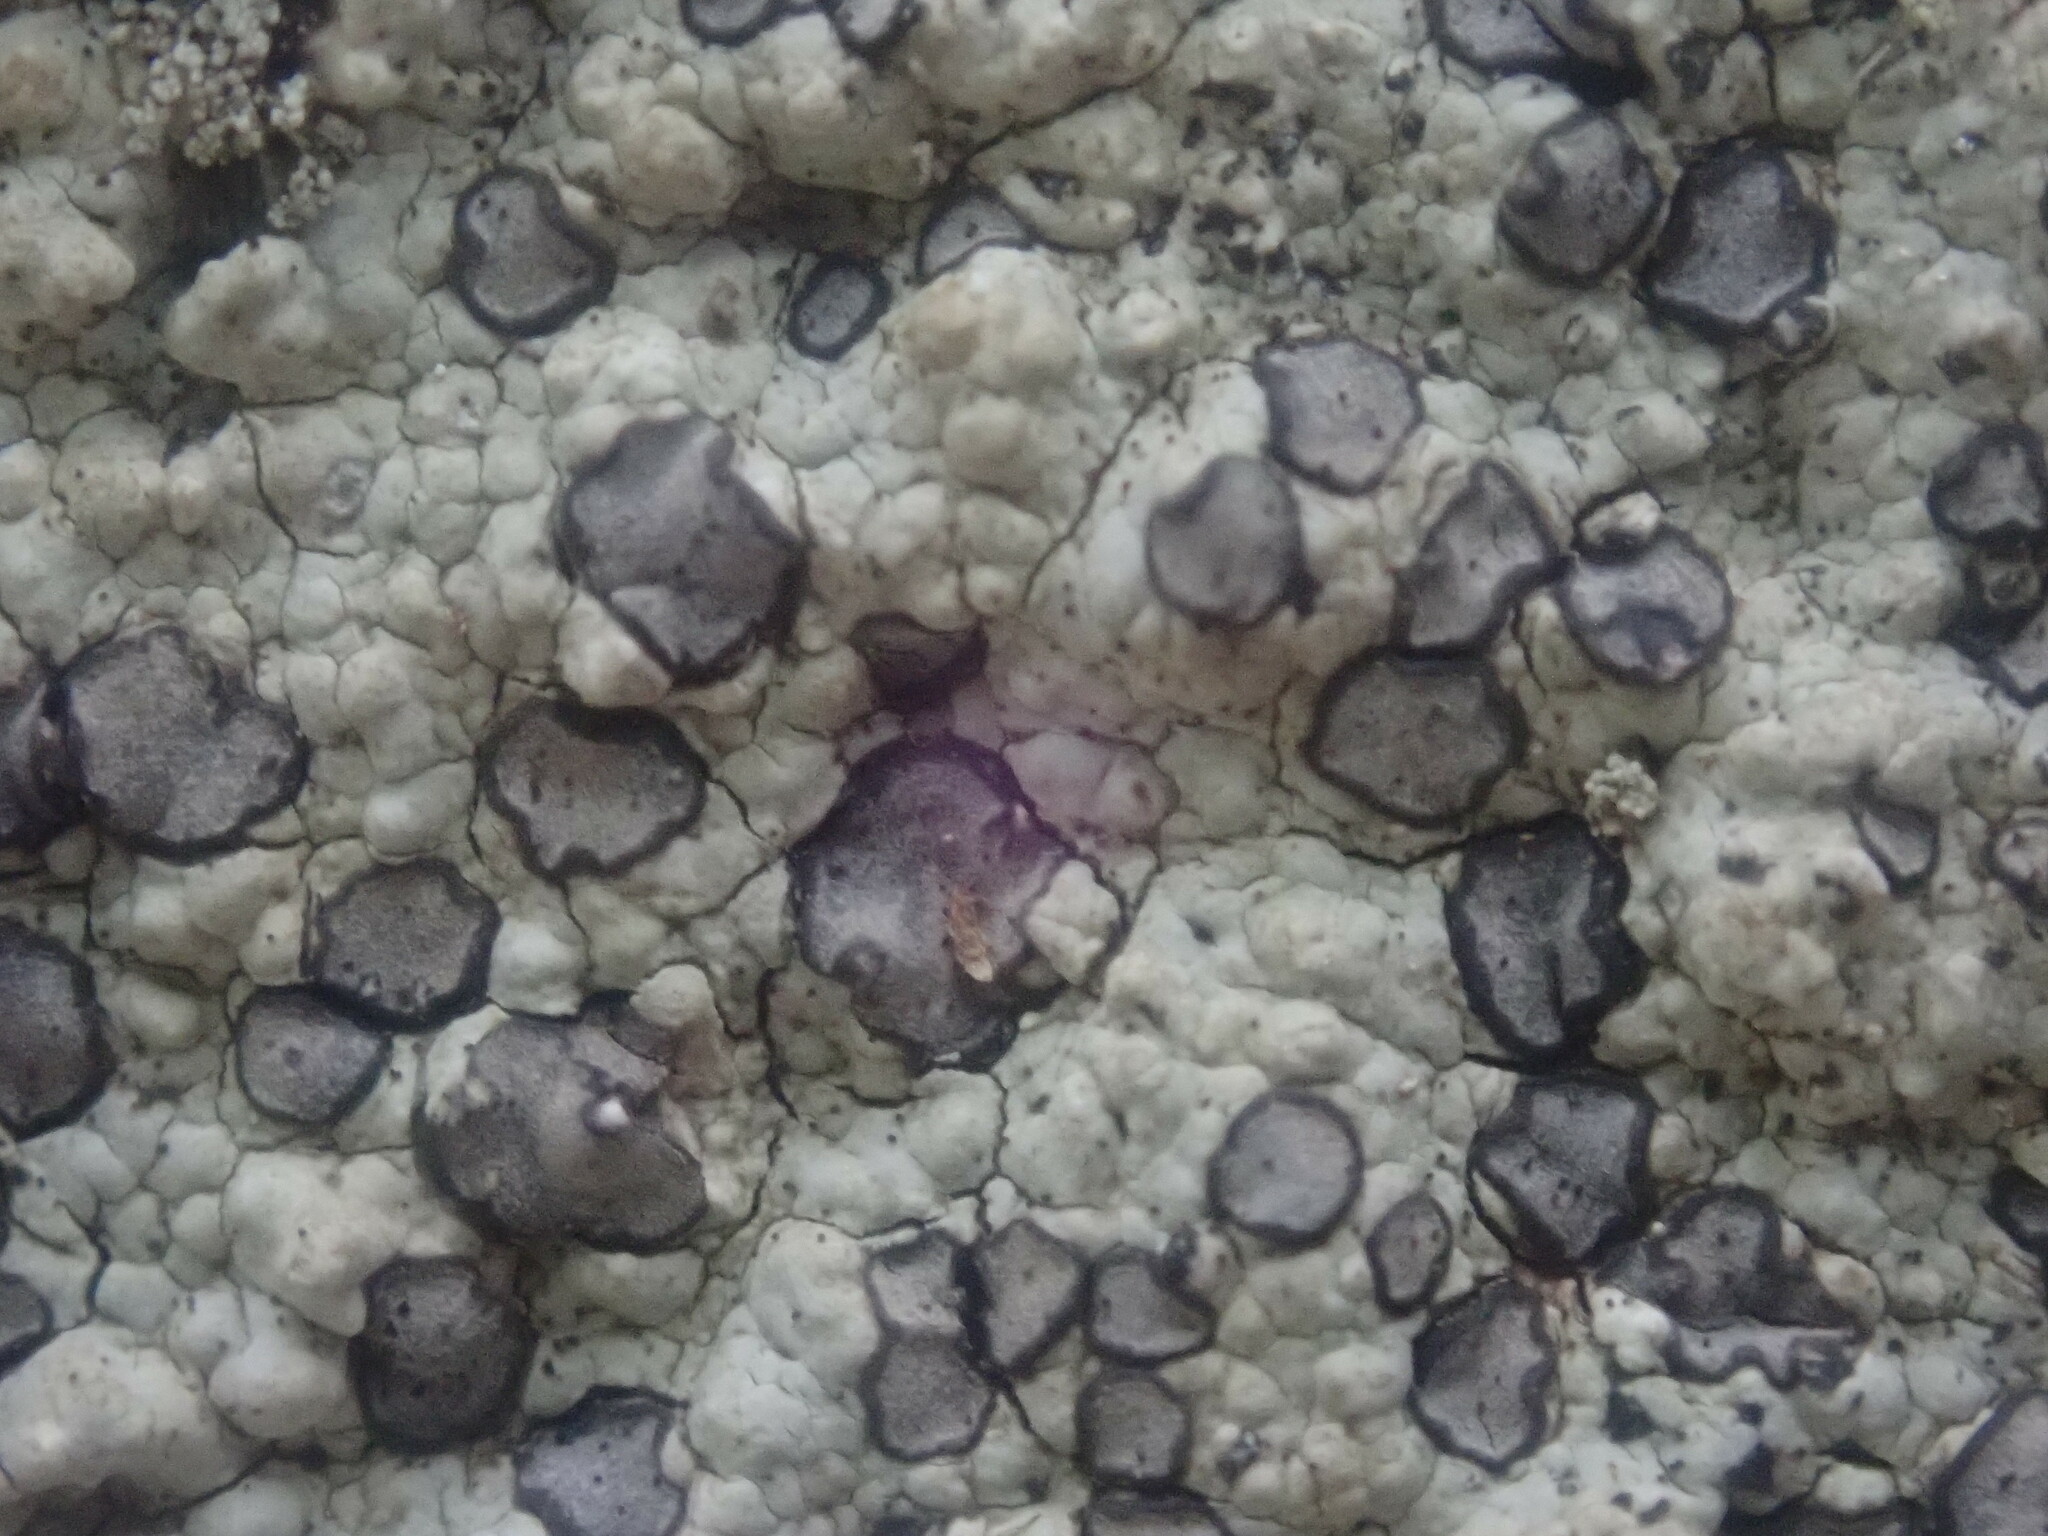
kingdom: Fungi
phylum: Ascomycota
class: Lecanoromycetes
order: Lecideales
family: Lecideaceae
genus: Porpidia
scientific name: Porpidia albocaerulescens
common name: Smokey-eyed boulder lichen
